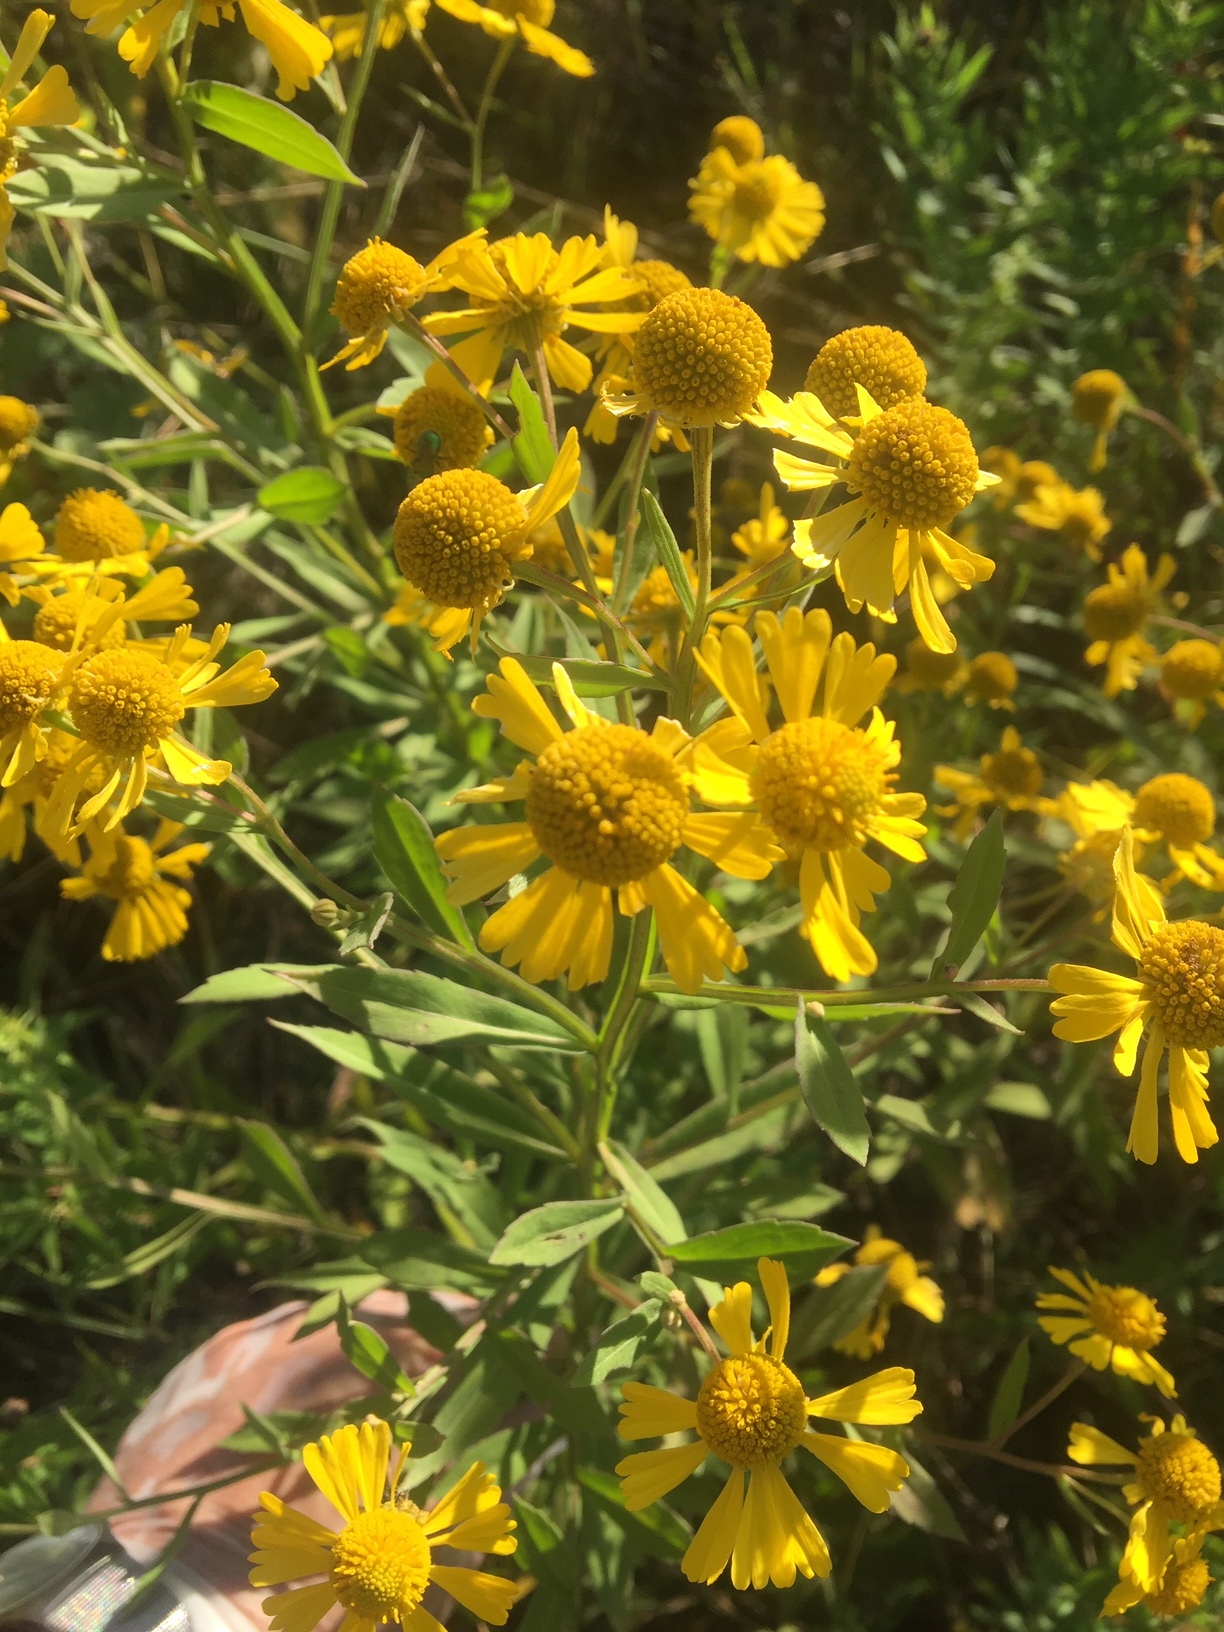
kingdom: Plantae
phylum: Tracheophyta
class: Magnoliopsida
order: Asterales
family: Asteraceae
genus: Helenium
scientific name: Helenium autumnale
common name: Sneezeweed
